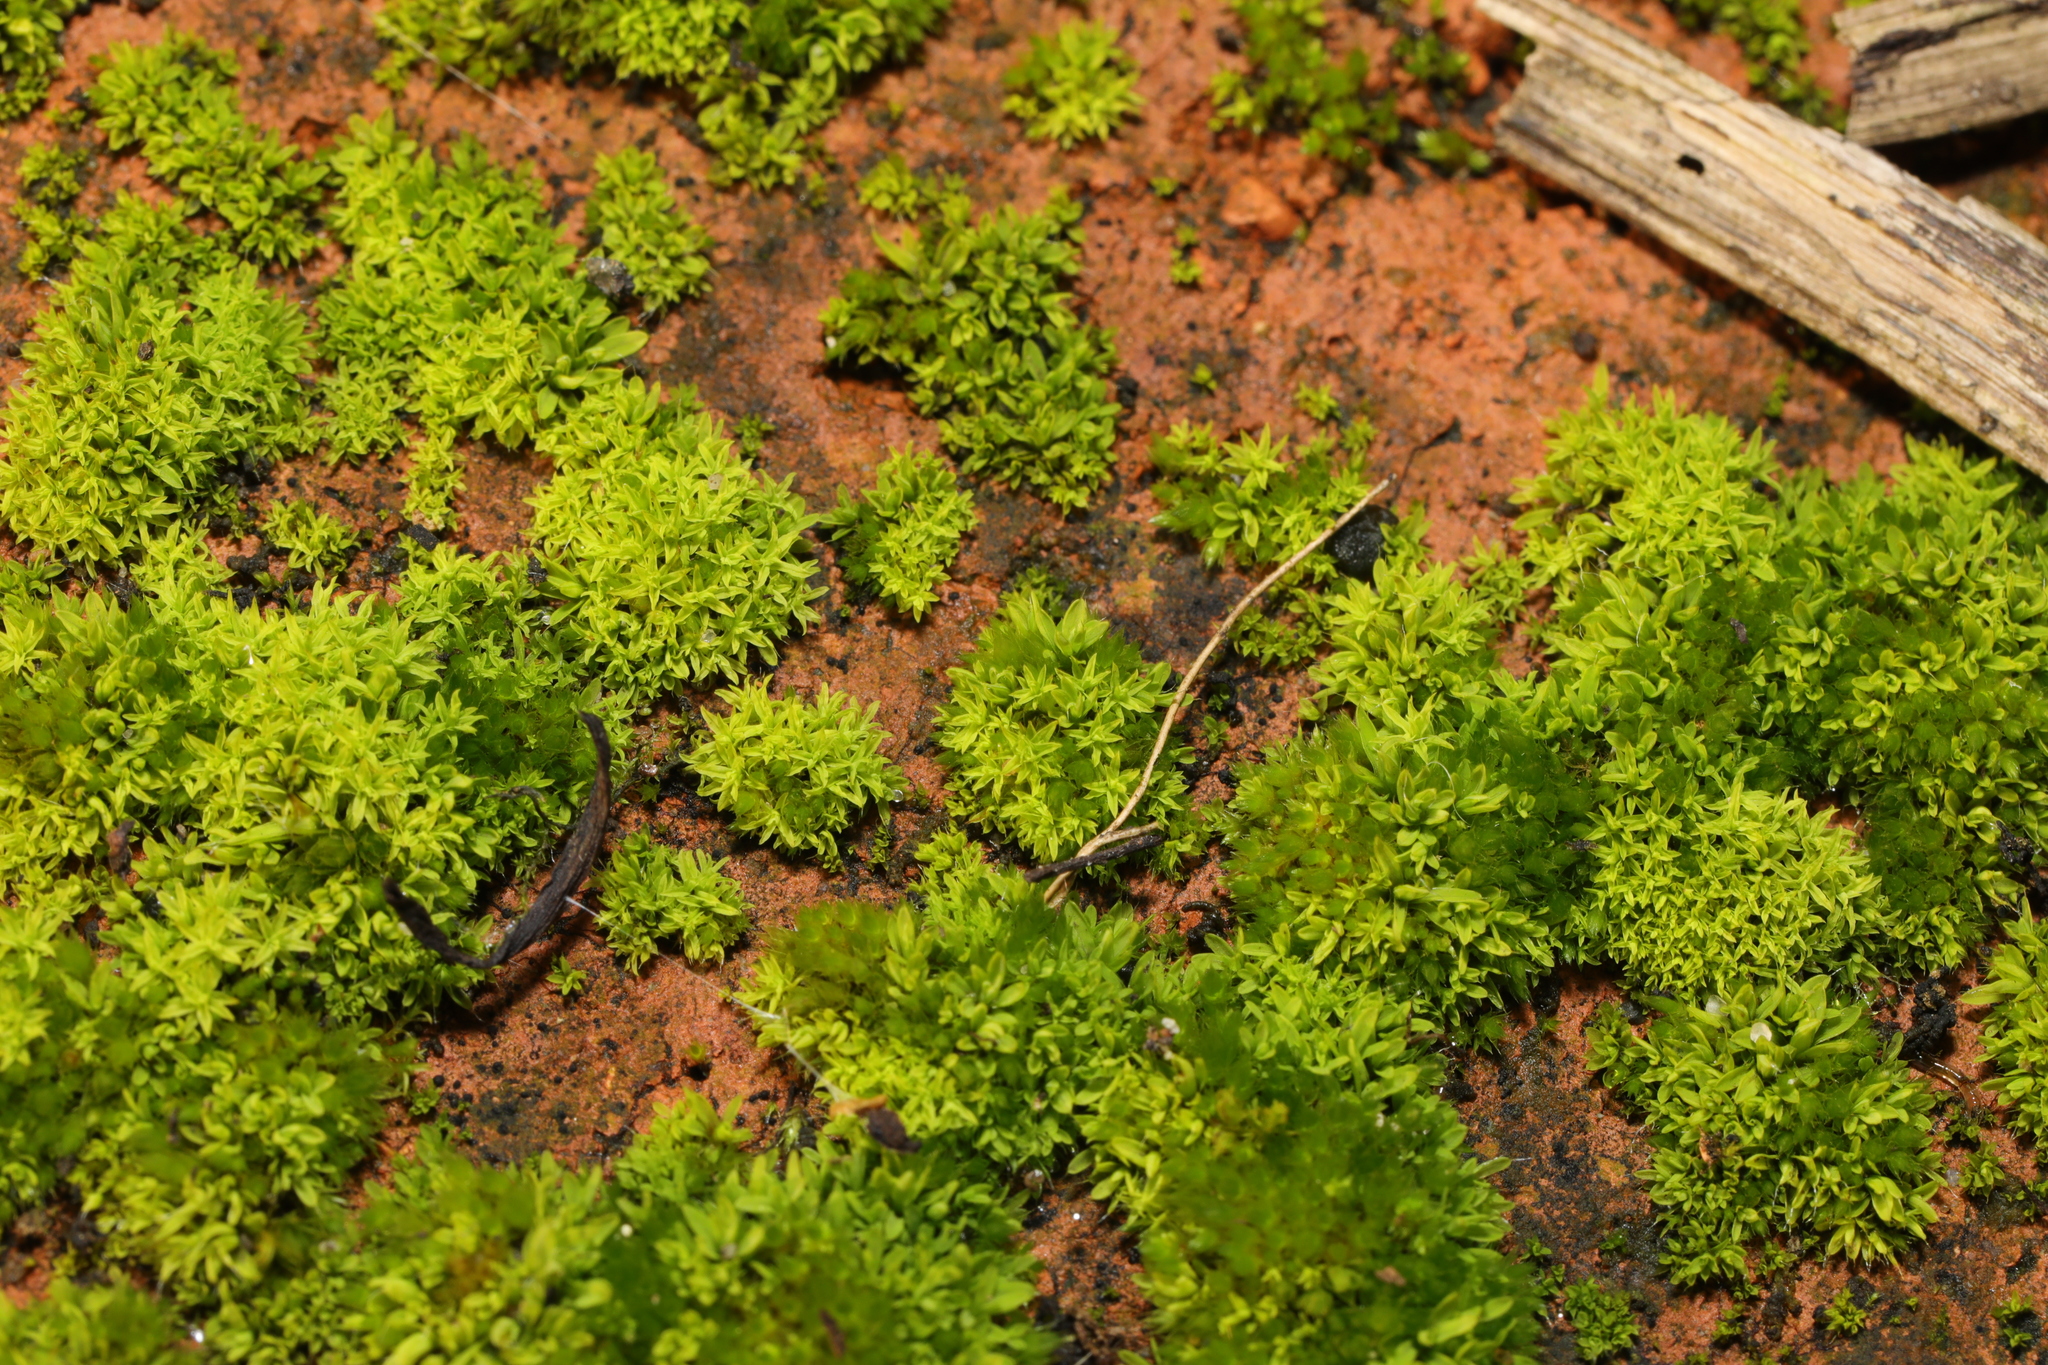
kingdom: Plantae
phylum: Bryophyta
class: Bryopsida
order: Pottiales
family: Pottiaceae
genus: Barbula
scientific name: Barbula unguiculata
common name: Prickly beard moss
